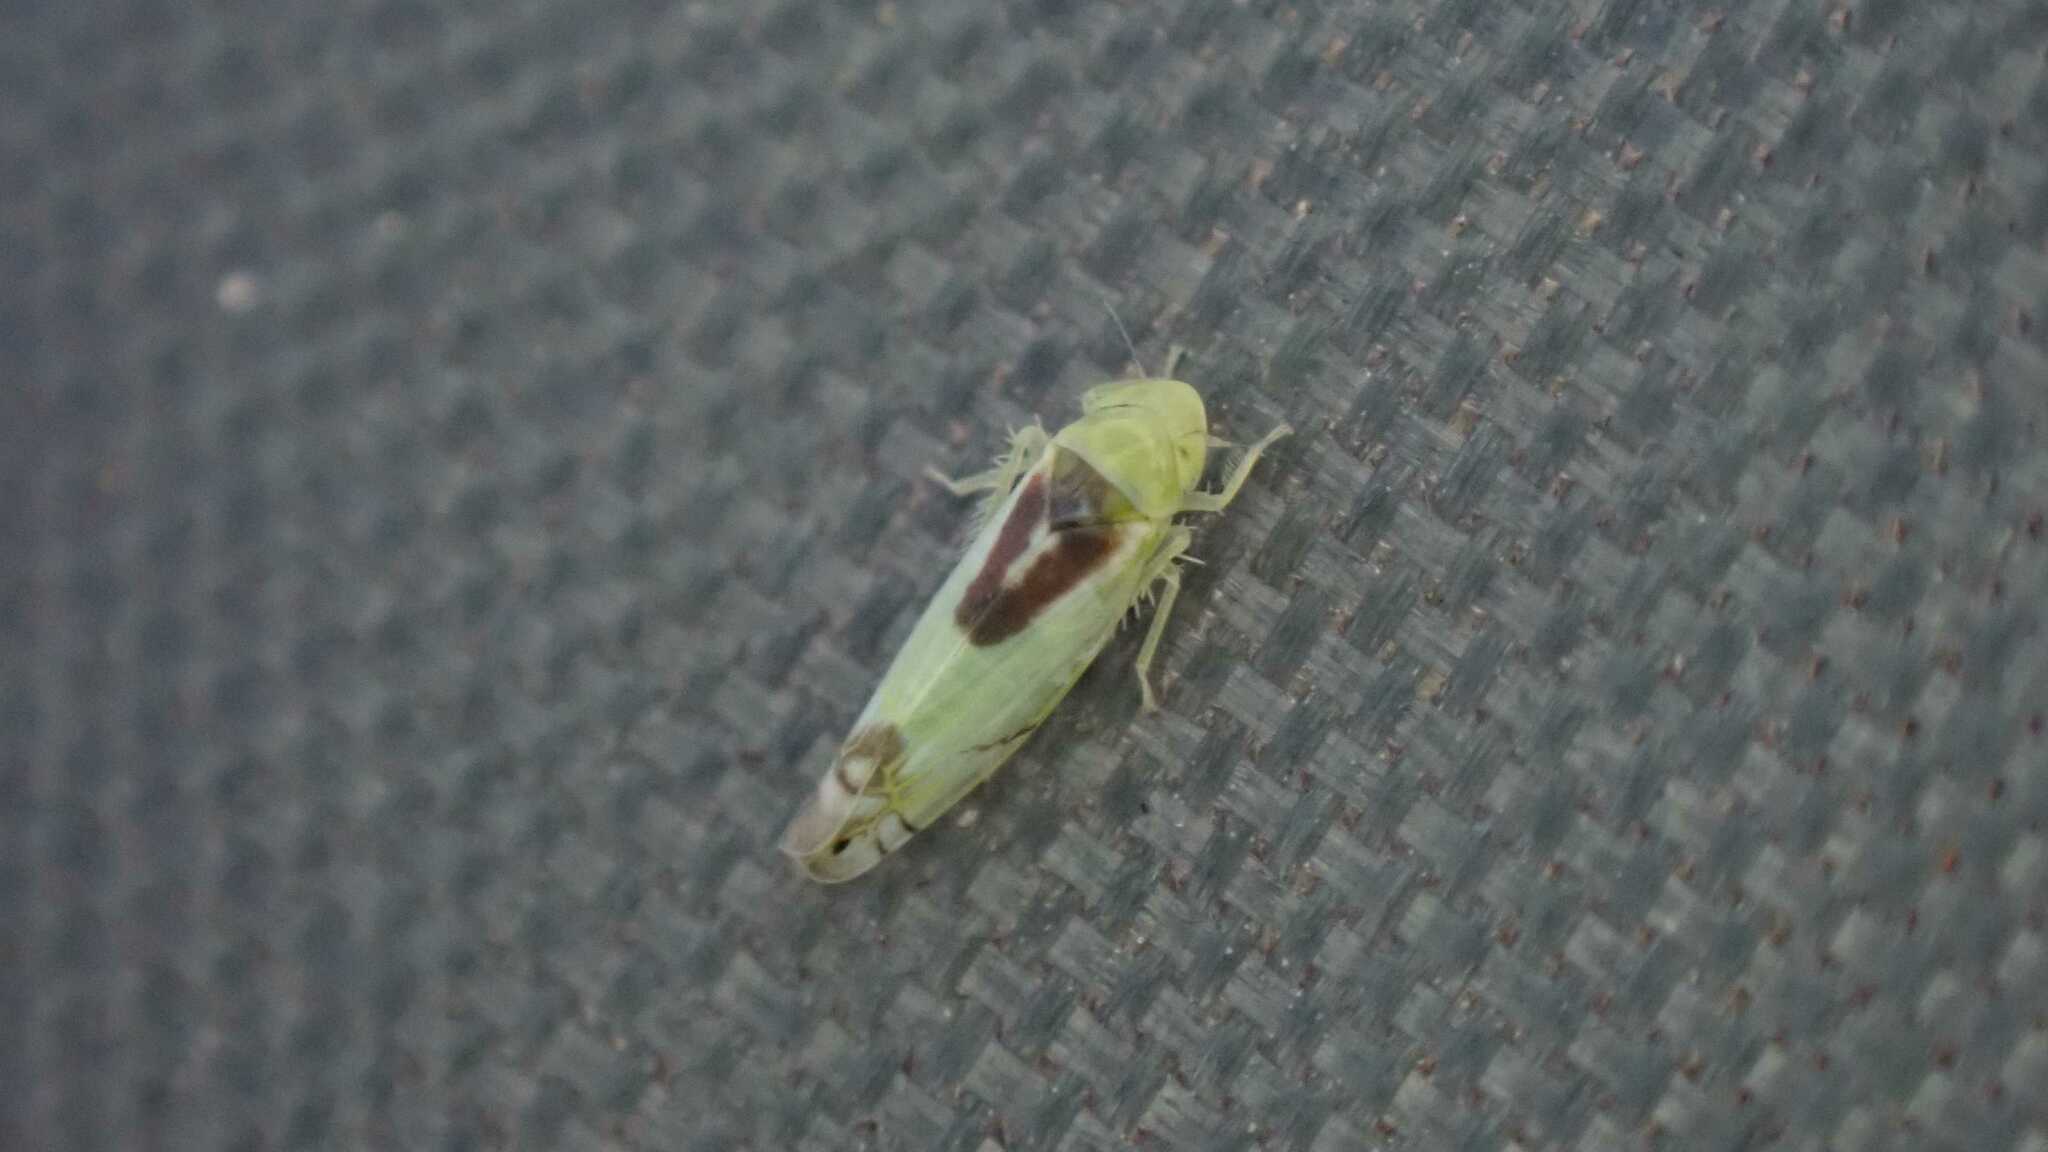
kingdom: Animalia
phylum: Arthropoda
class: Insecta
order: Hemiptera
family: Cicadellidae
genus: Zyginella
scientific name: Zyginella pulchra
